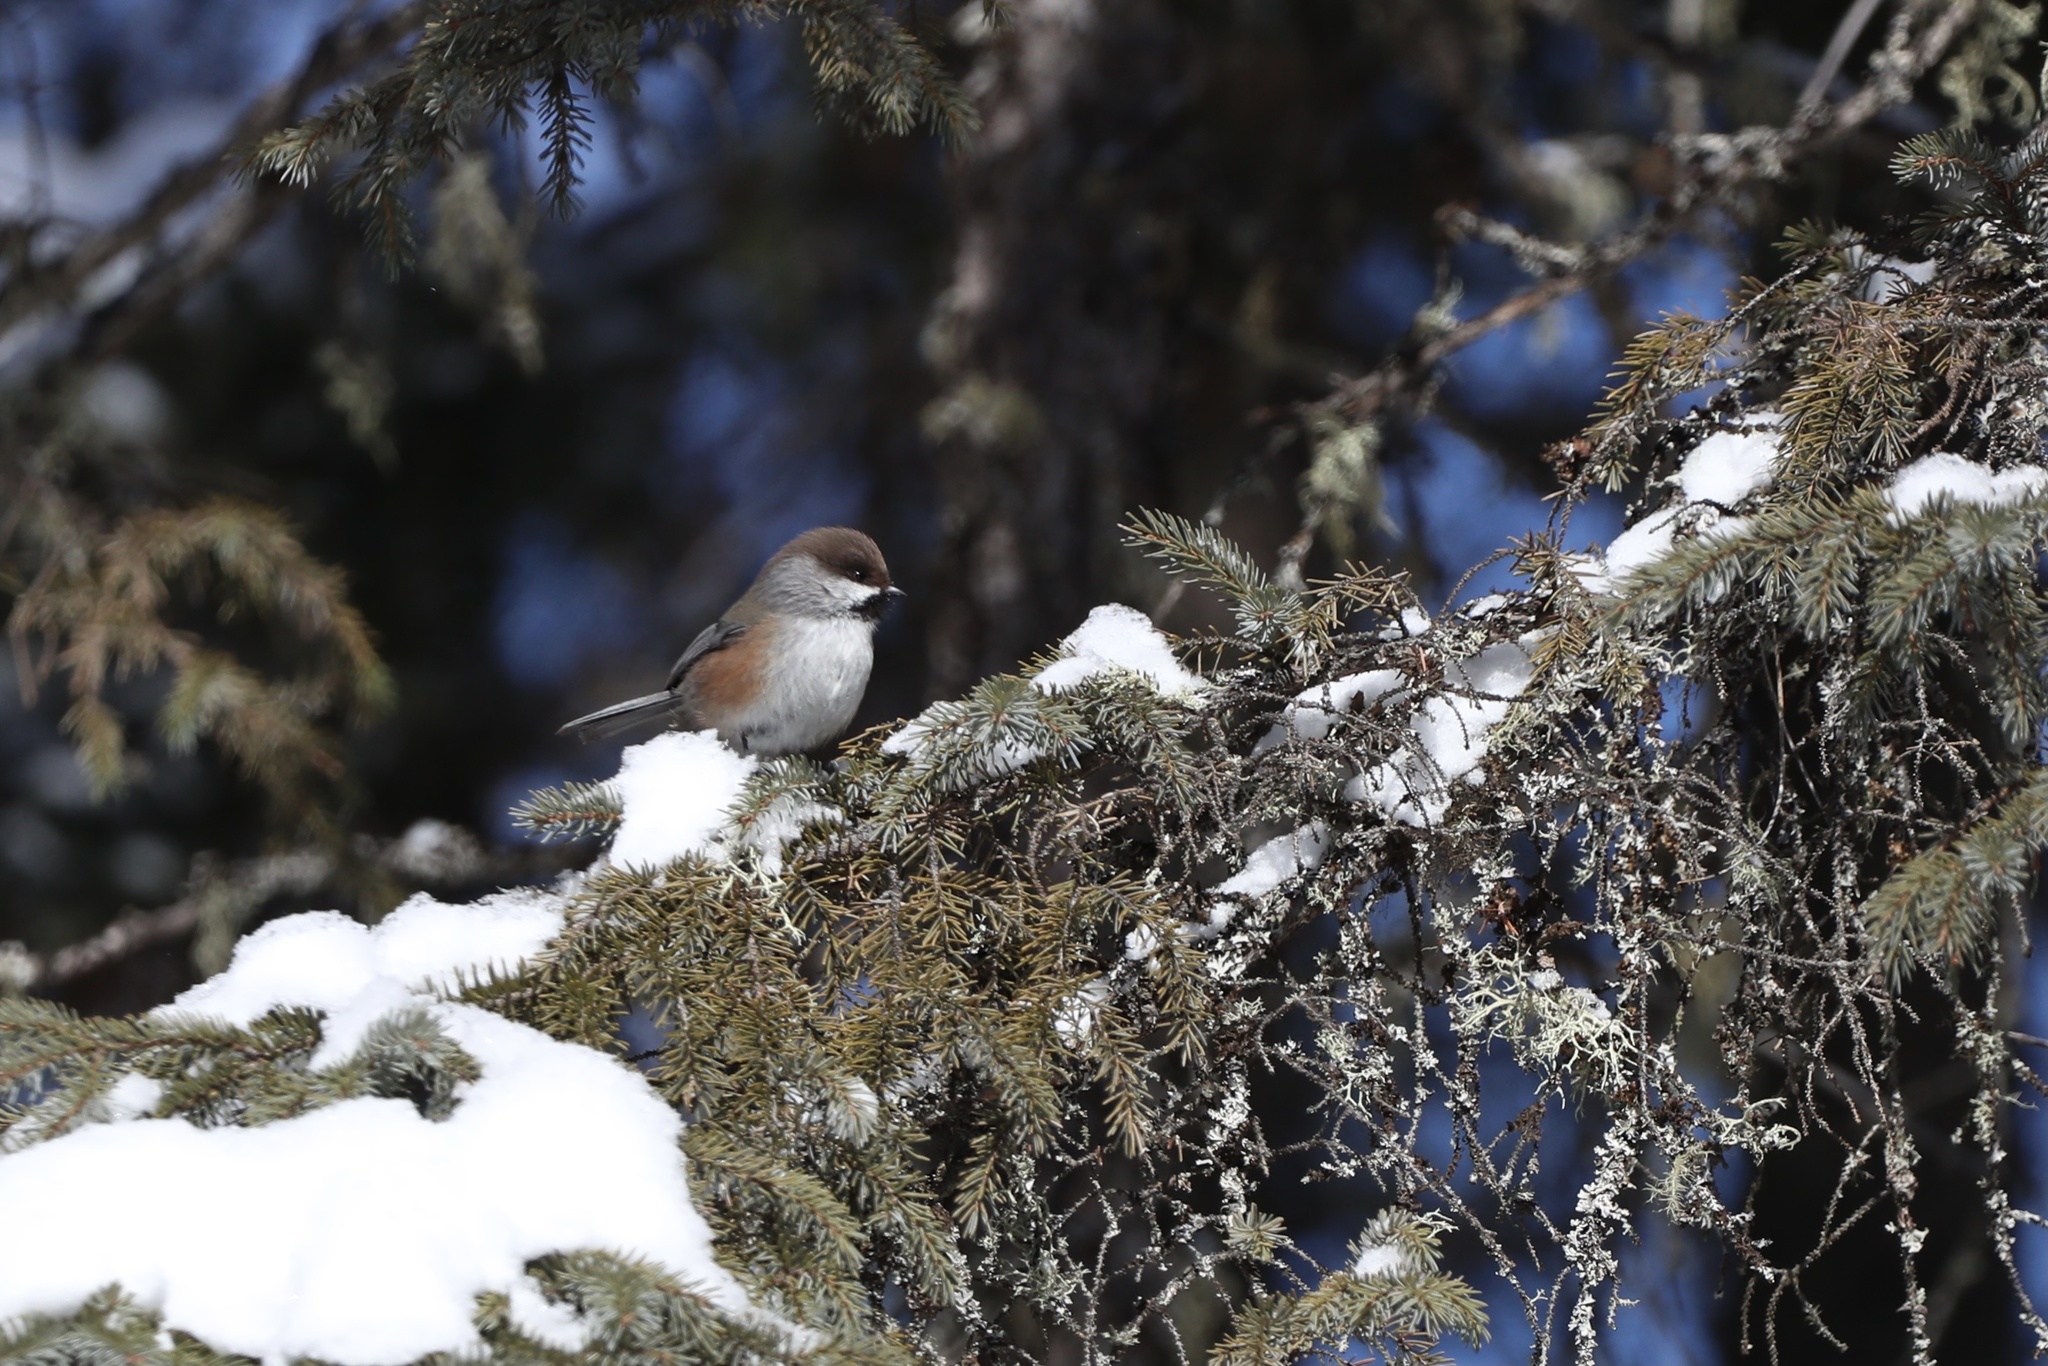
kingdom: Animalia
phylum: Chordata
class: Aves
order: Passeriformes
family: Paridae
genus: Poecile
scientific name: Poecile hudsonicus
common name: Boreal chickadee
